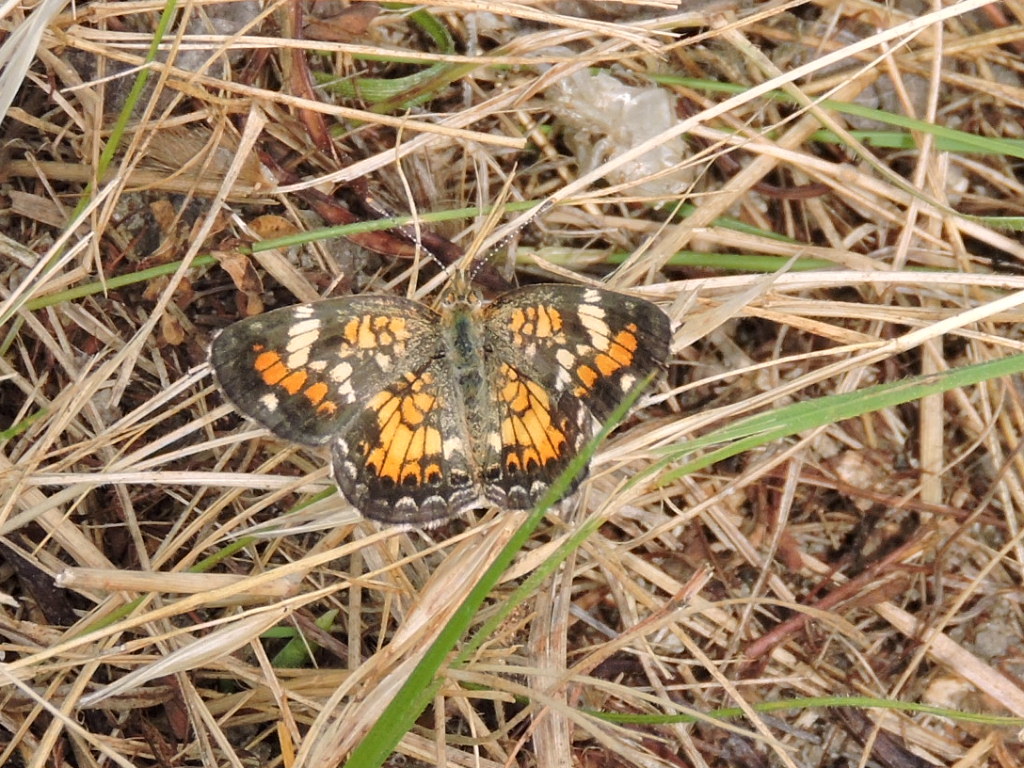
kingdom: Animalia
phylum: Arthropoda
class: Insecta
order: Lepidoptera
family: Nymphalidae
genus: Phyciodes
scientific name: Phyciodes phaon
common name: Phaon crescent
